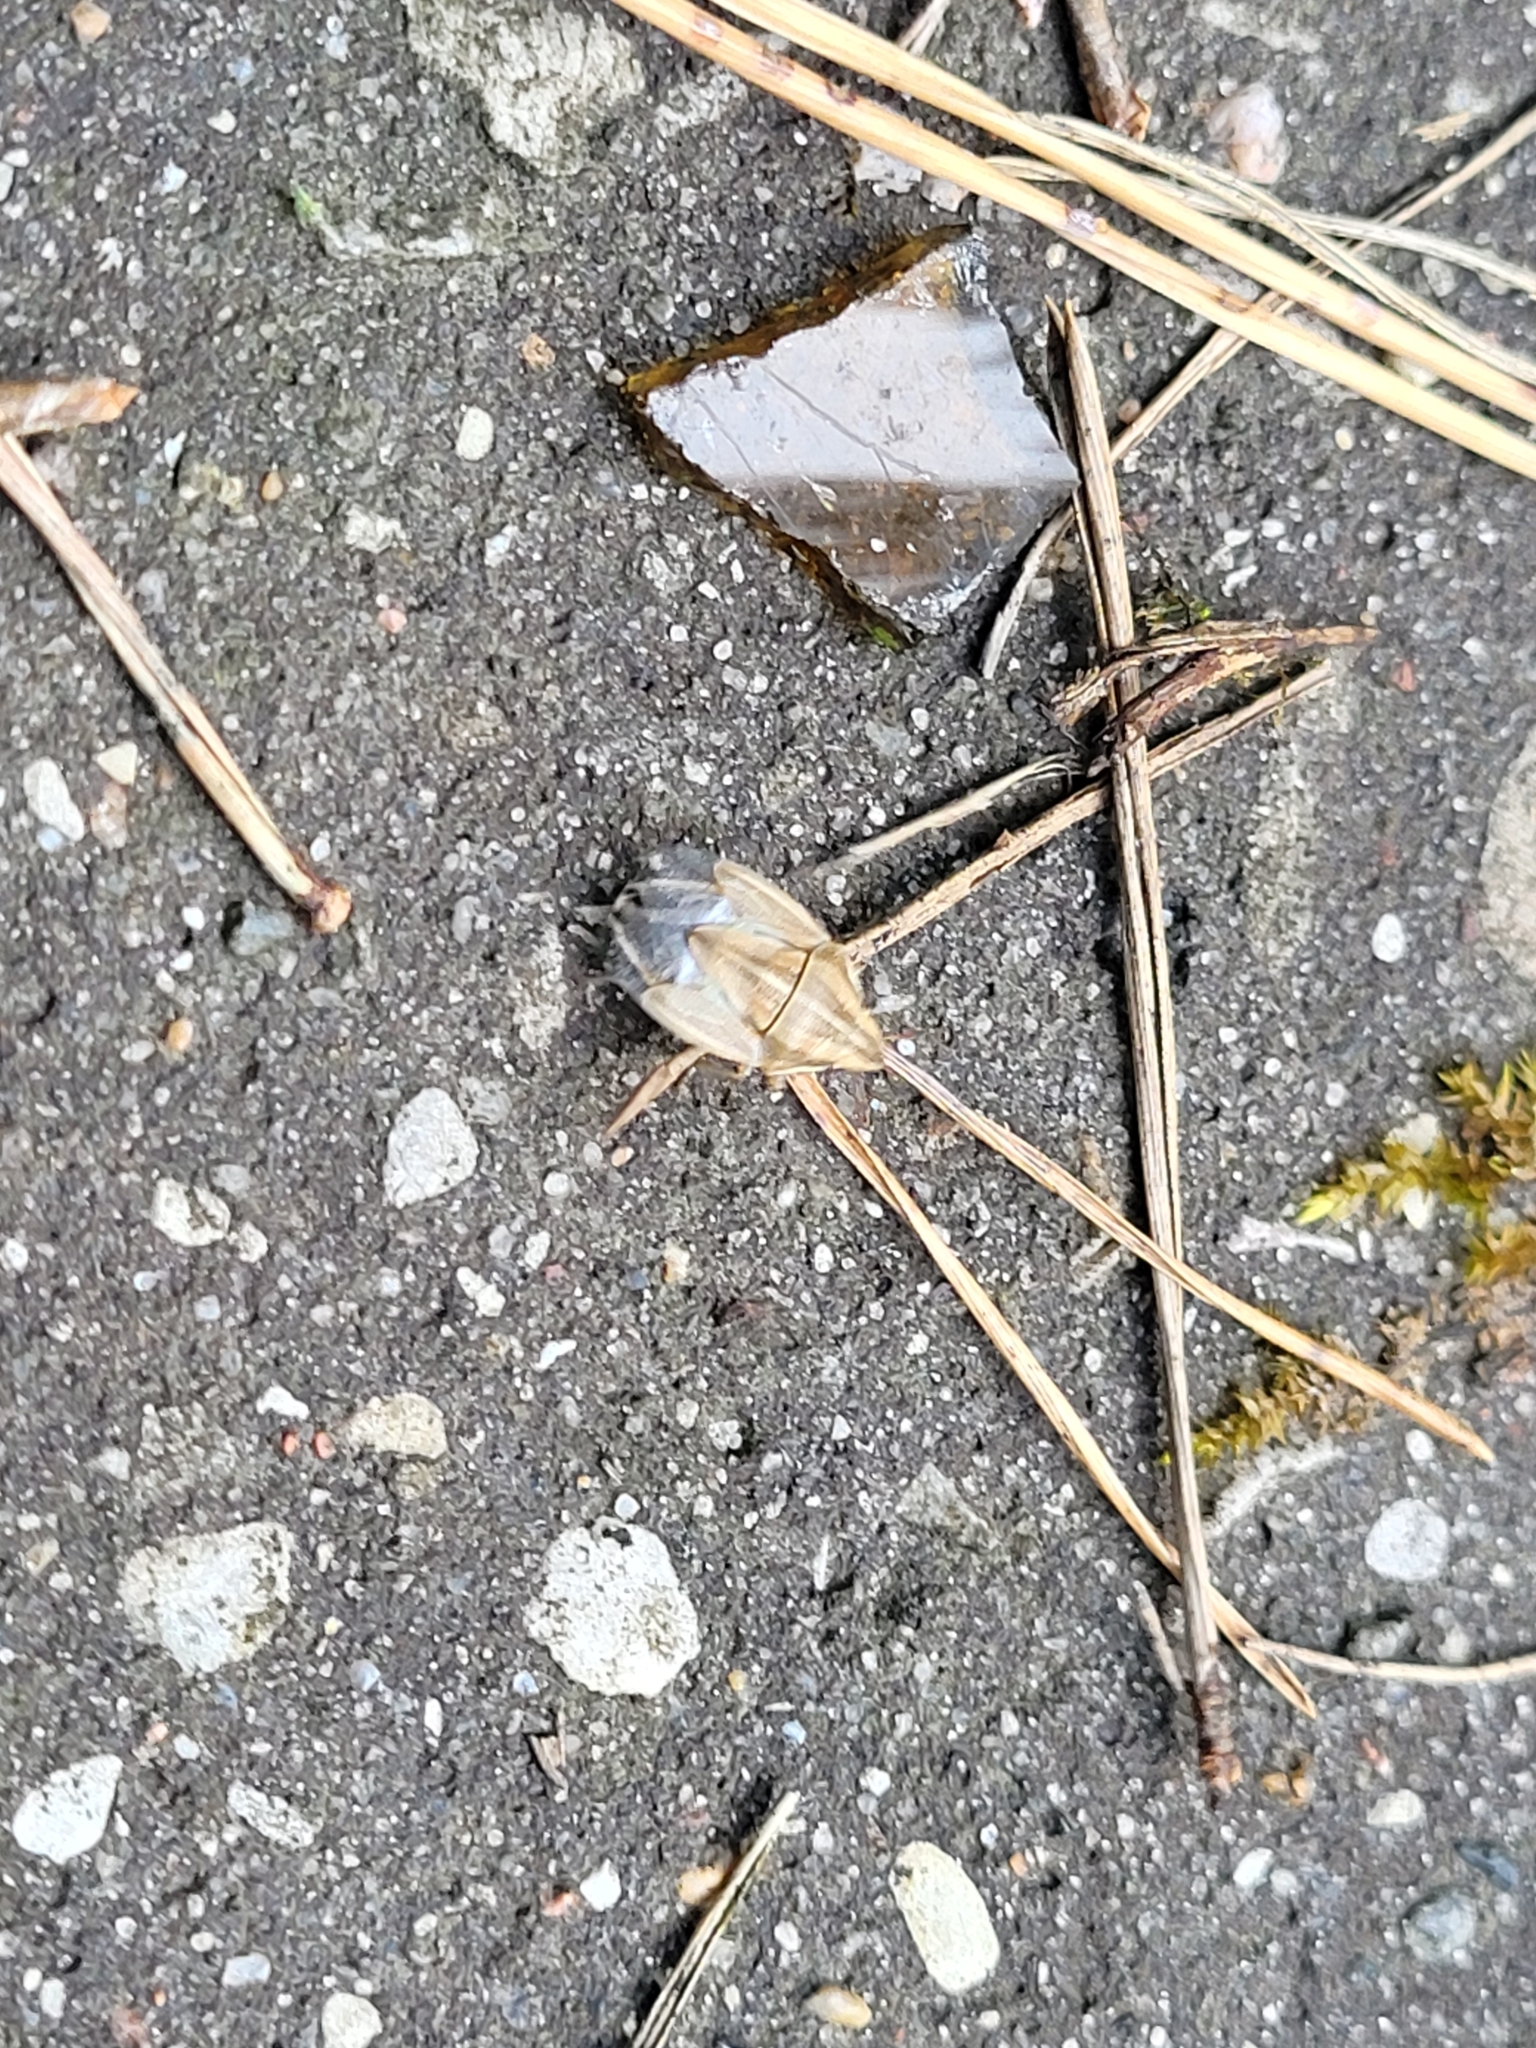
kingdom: Animalia
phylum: Arthropoda
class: Insecta
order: Hemiptera
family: Pentatomidae
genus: Aelia
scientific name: Aelia acuminata
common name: Bishop's mitre
